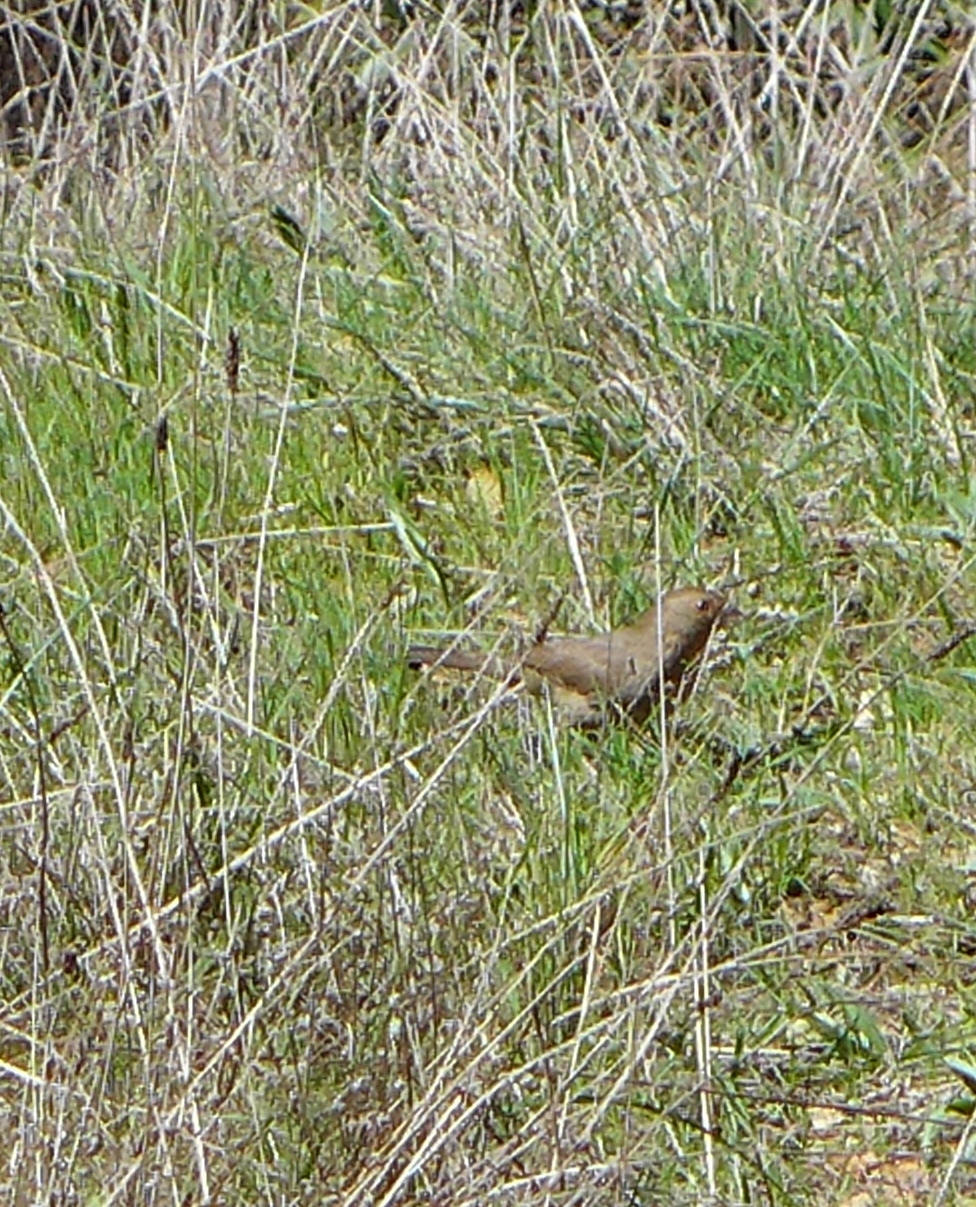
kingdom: Animalia
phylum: Chordata
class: Aves
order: Passeriformes
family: Passerellidae
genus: Melozone
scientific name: Melozone crissalis
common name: California towhee
